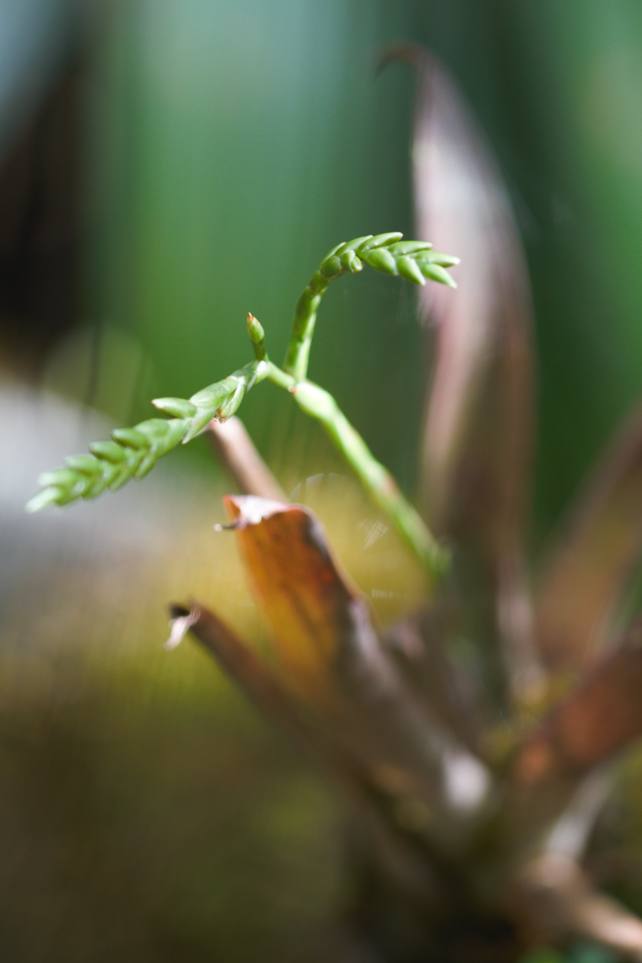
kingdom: Plantae
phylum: Tracheophyta
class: Liliopsida
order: Poales
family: Bromeliaceae
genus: Racinaea
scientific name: Racinaea spiculosa
